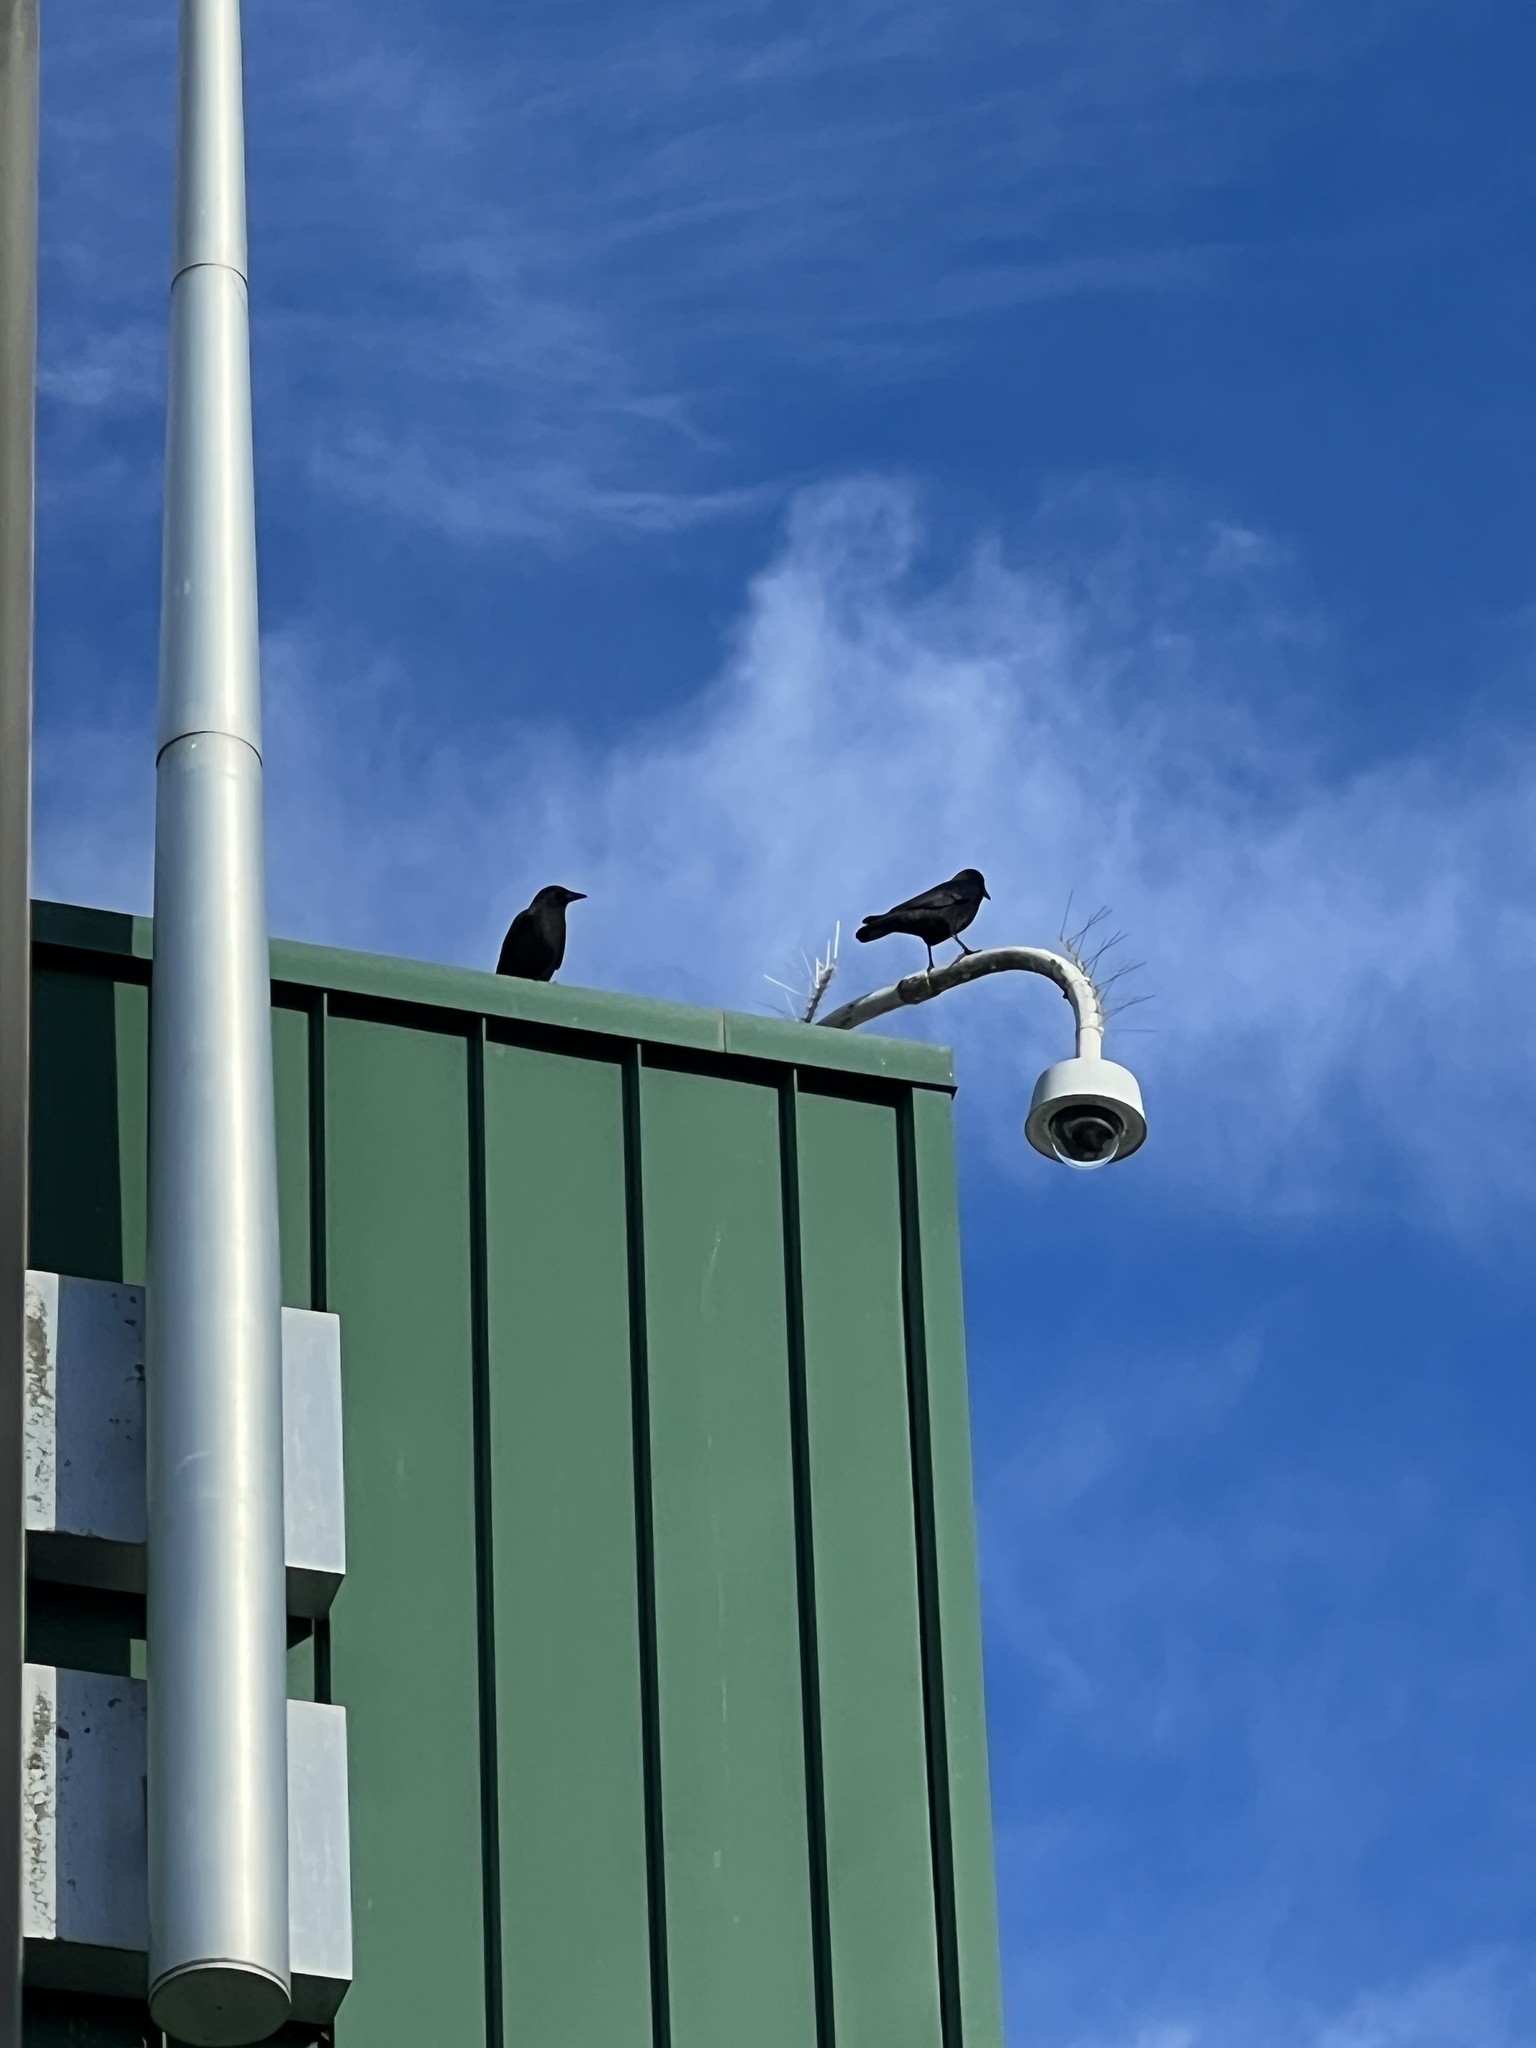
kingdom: Animalia
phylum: Chordata
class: Aves
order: Passeriformes
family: Corvidae
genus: Corvus
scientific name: Corvus brachyrhynchos
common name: American crow
